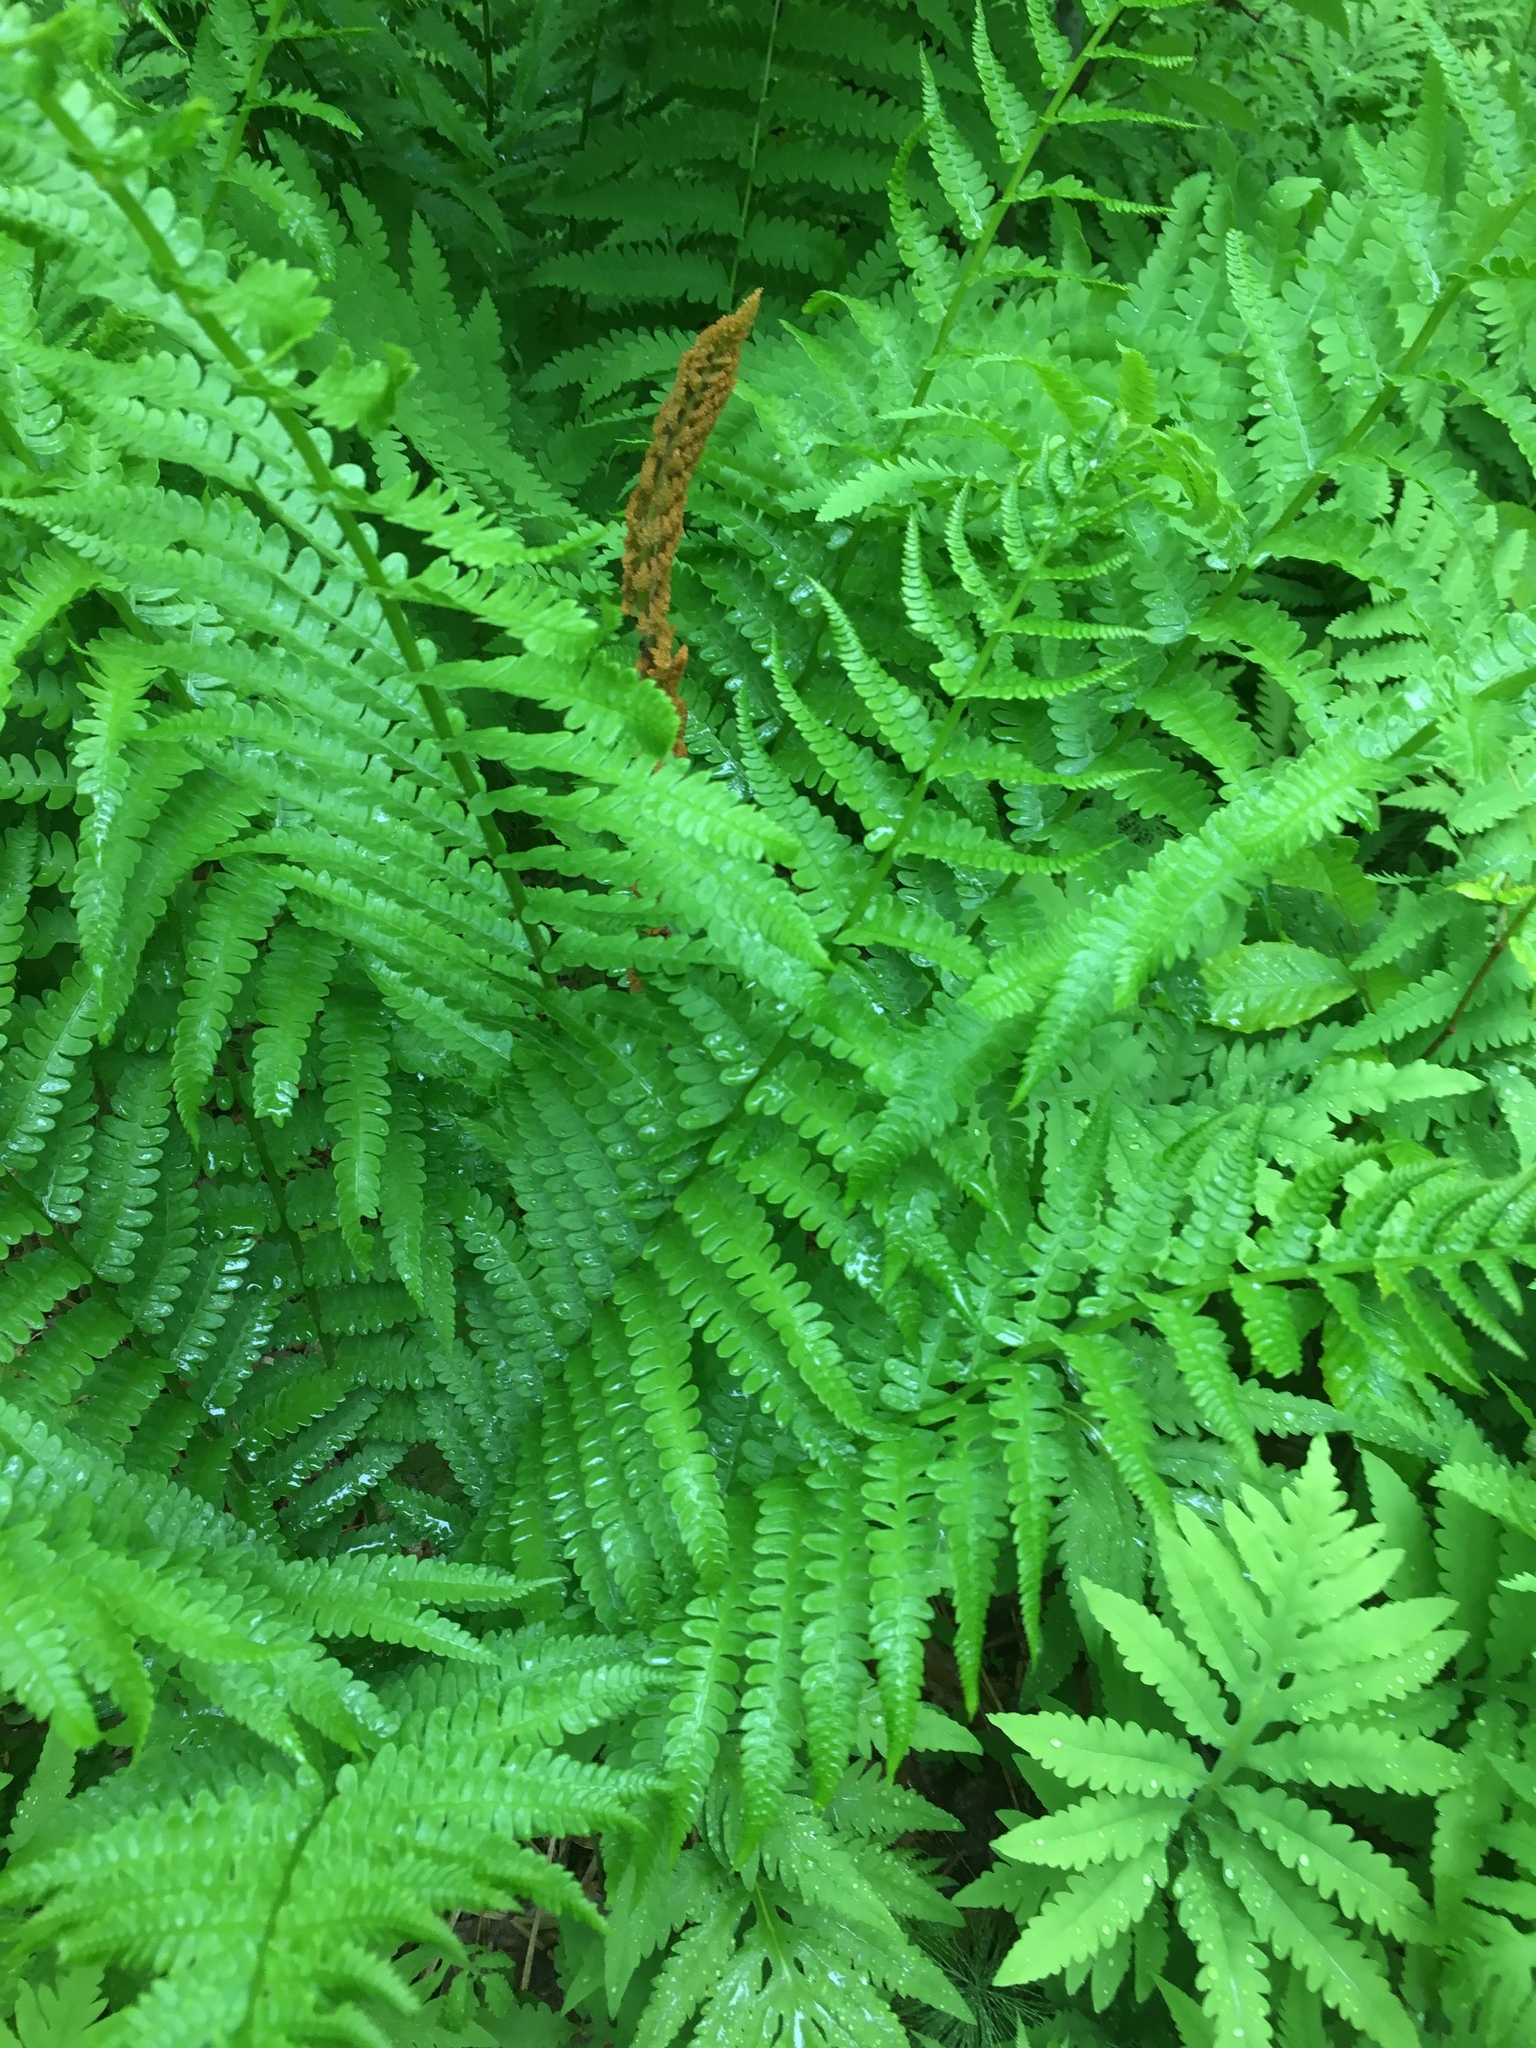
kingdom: Plantae
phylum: Tracheophyta
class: Polypodiopsida
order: Osmundales
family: Osmundaceae
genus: Osmundastrum
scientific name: Osmundastrum cinnamomeum
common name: Cinnamon fern
